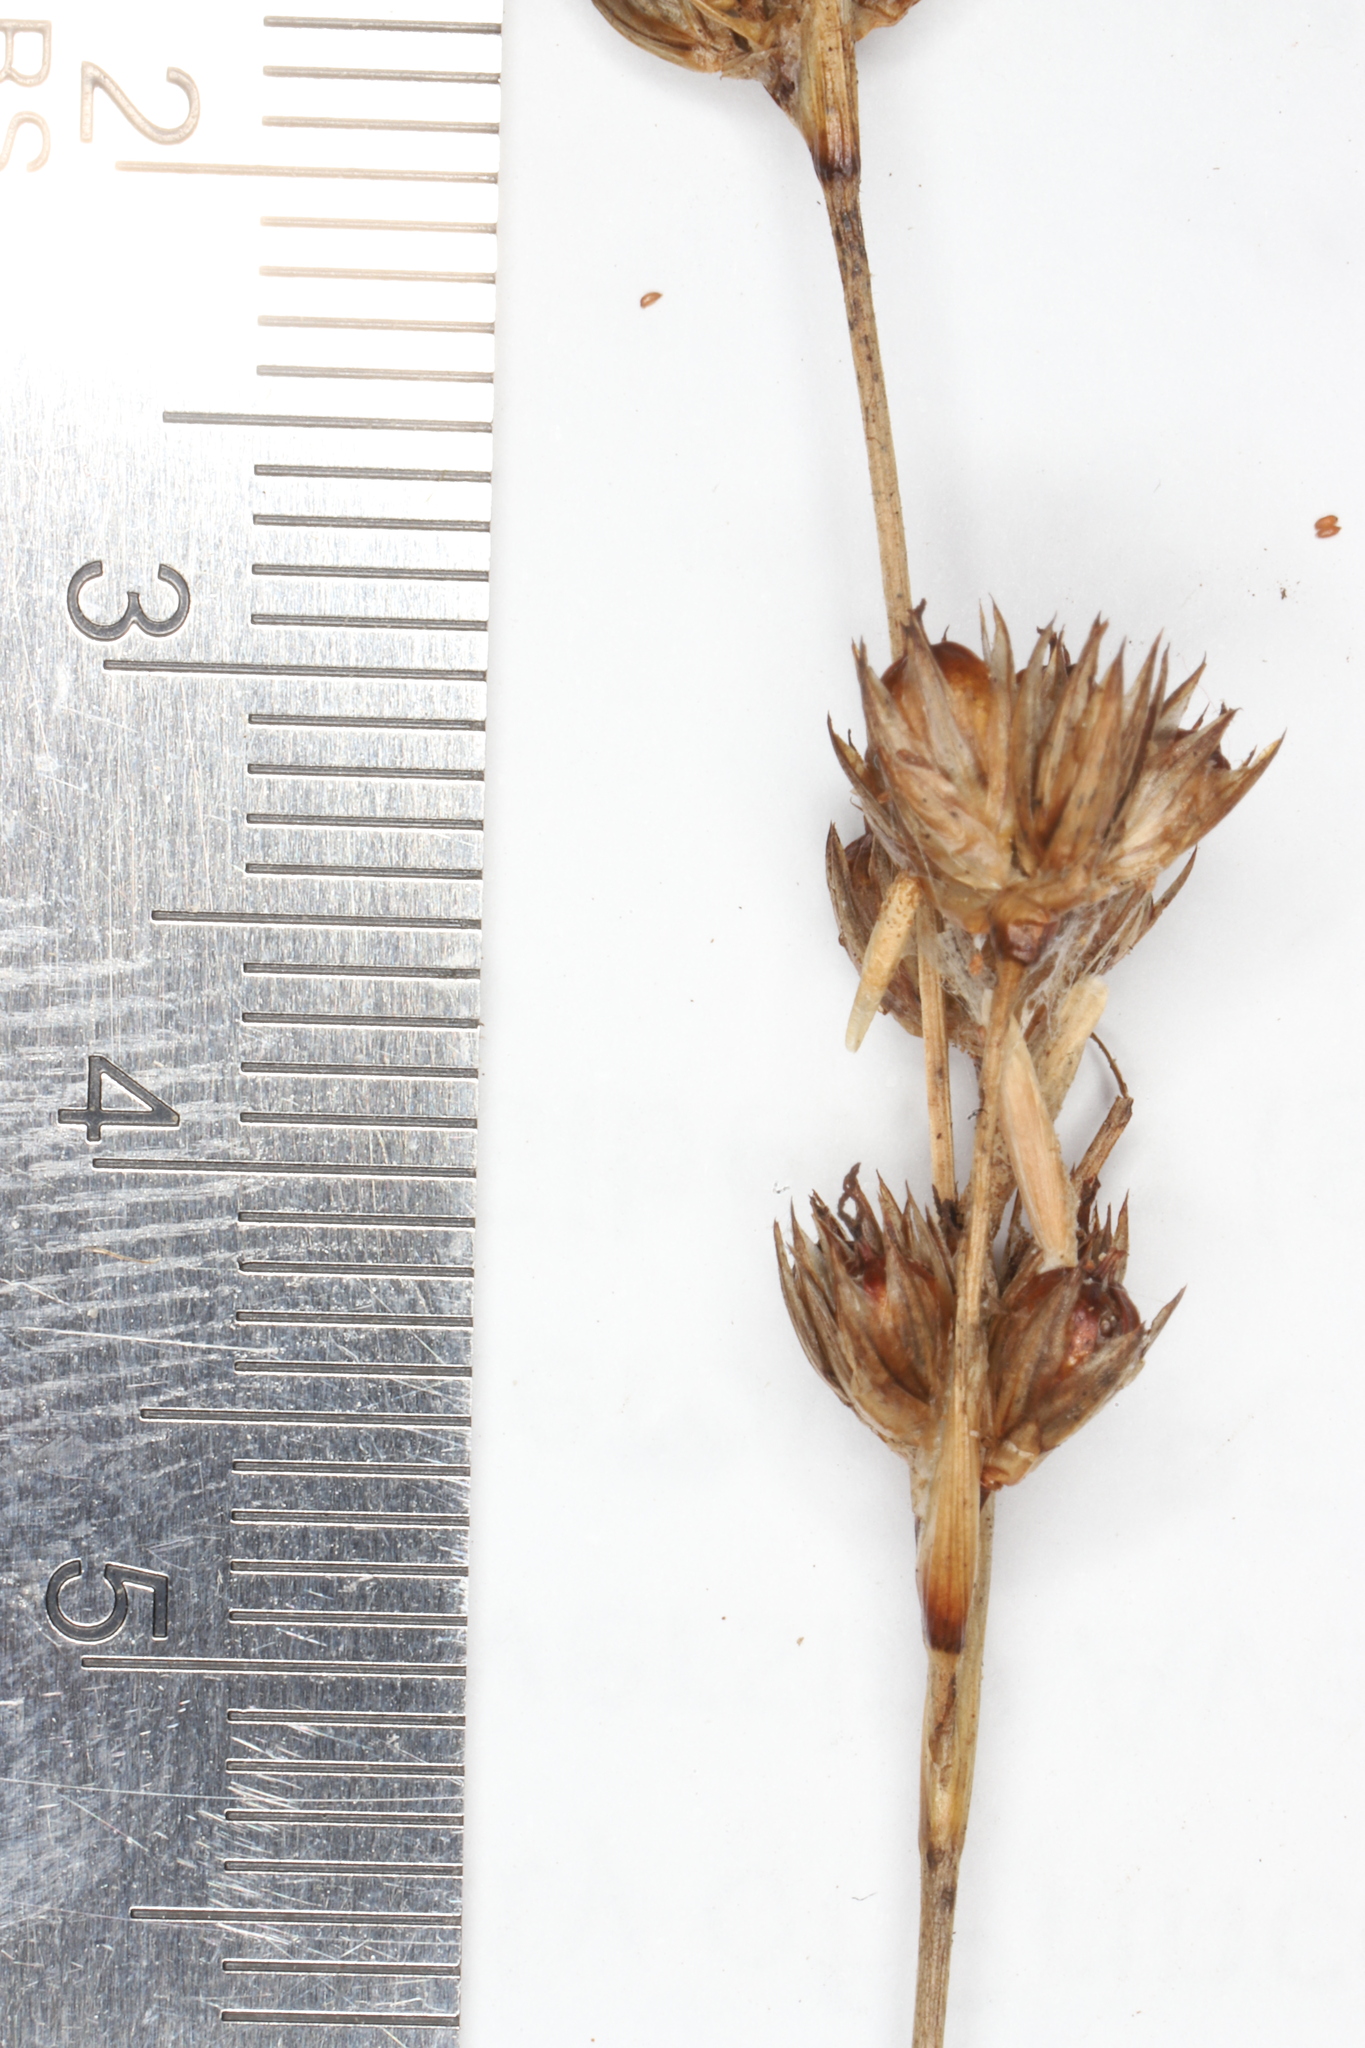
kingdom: Plantae
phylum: Tracheophyta
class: Liliopsida
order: Poales
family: Juncaceae
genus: Juncus
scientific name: Juncus longistylis
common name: Long-style rush
